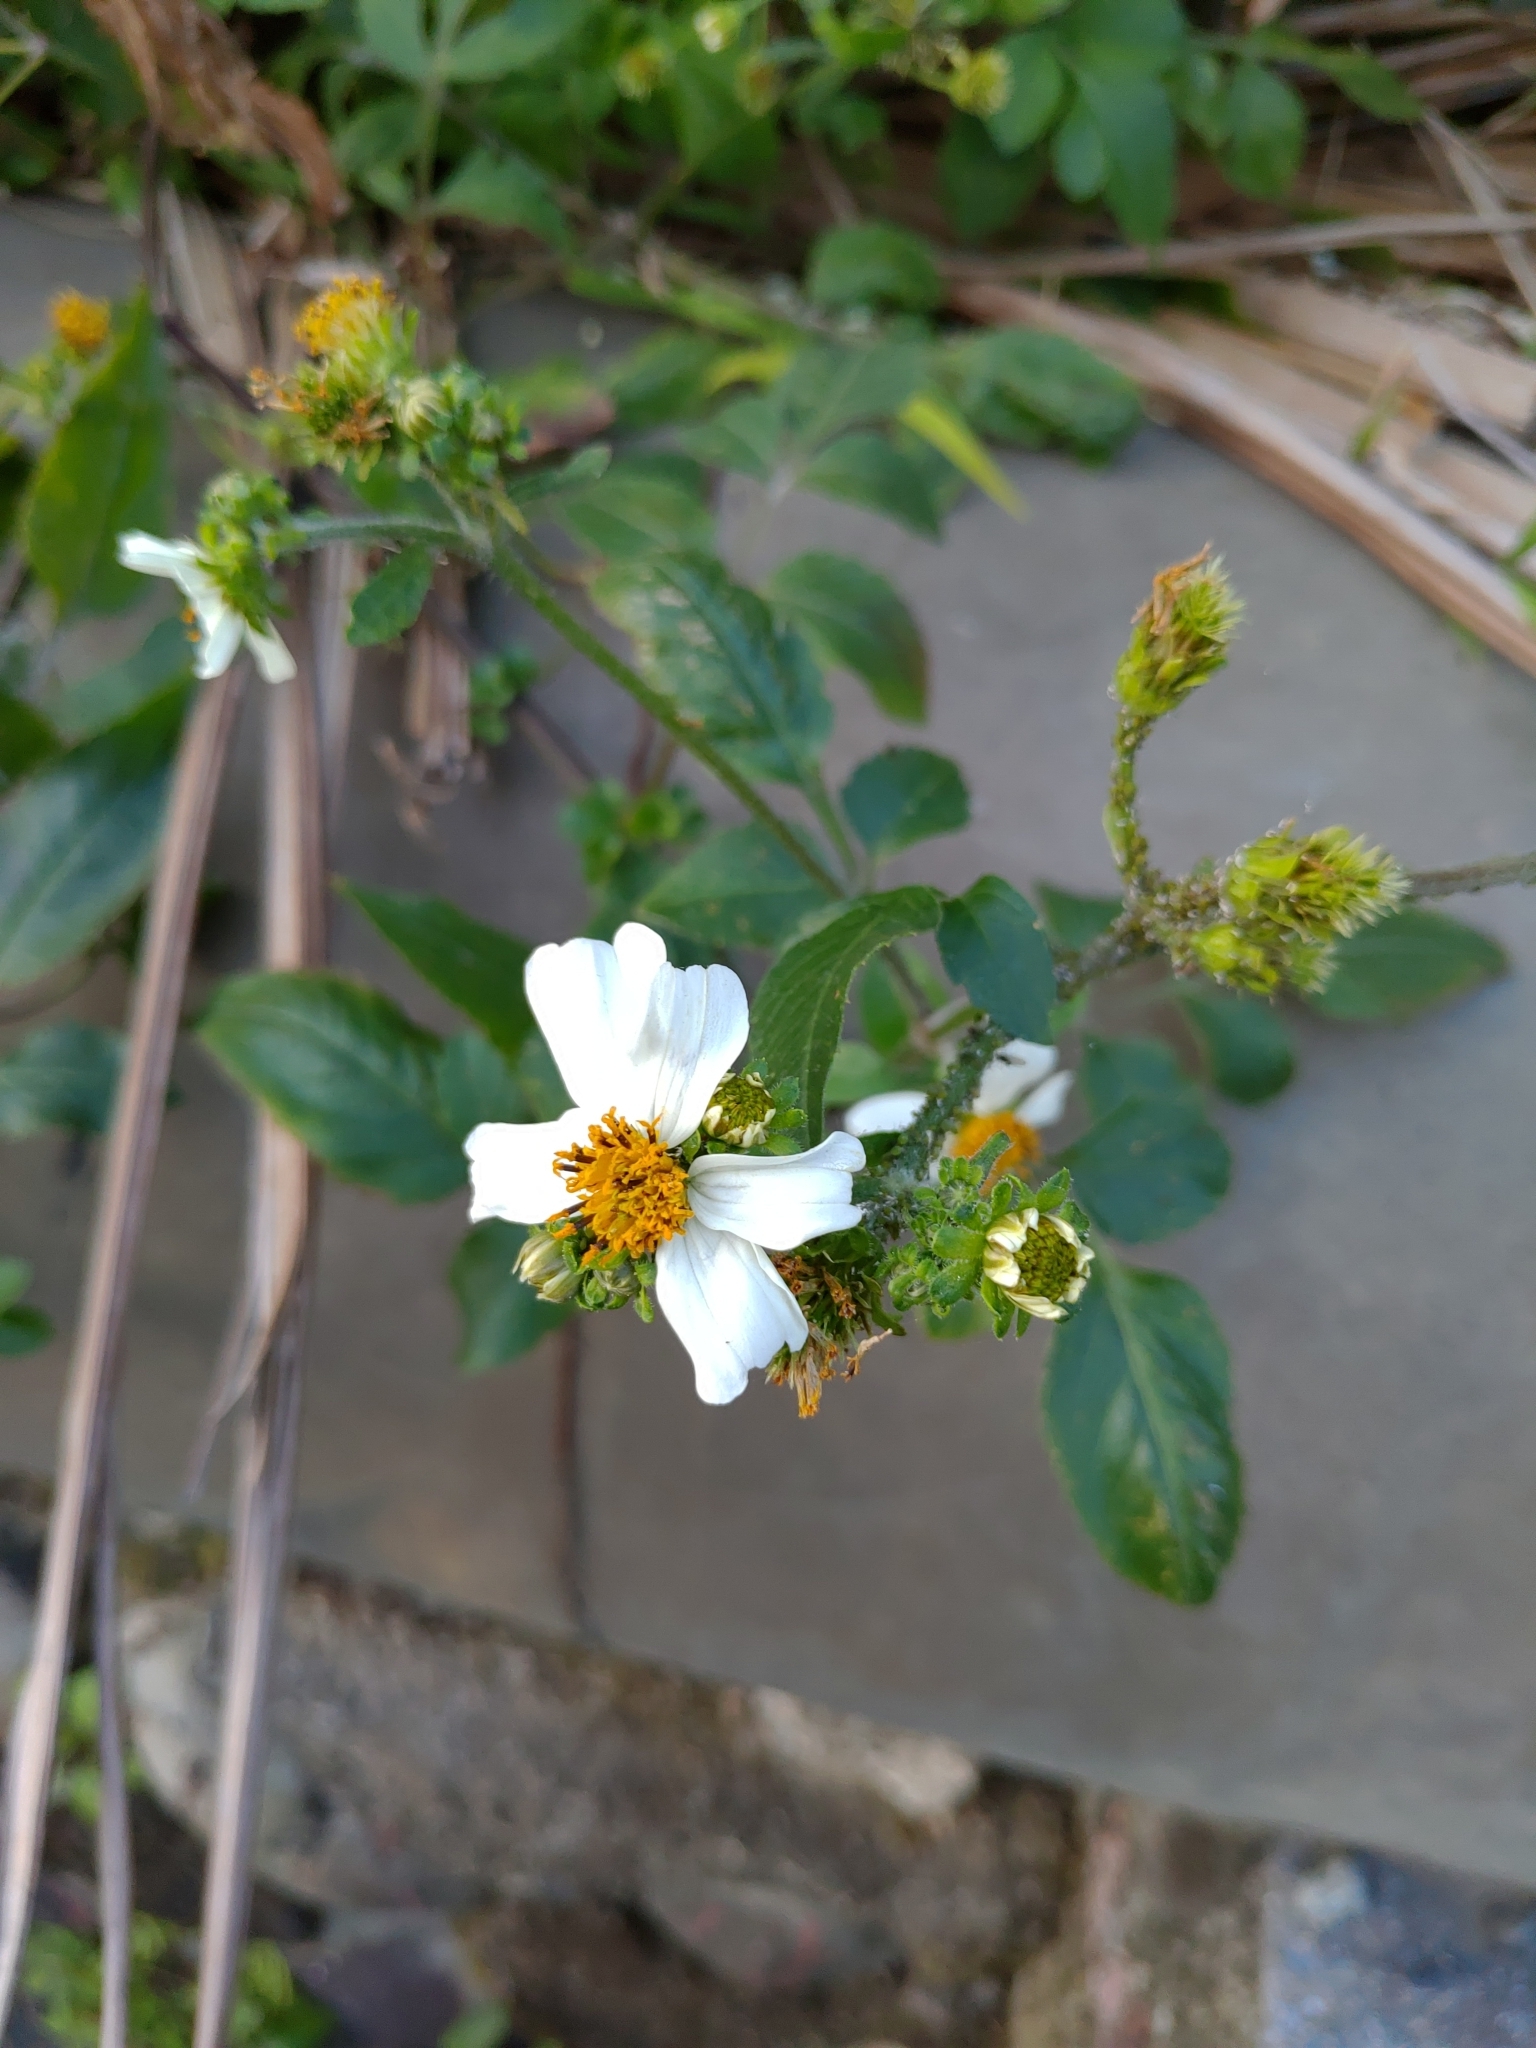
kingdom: Plantae
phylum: Tracheophyta
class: Magnoliopsida
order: Asterales
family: Asteraceae
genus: Bidens
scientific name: Bidens alba
